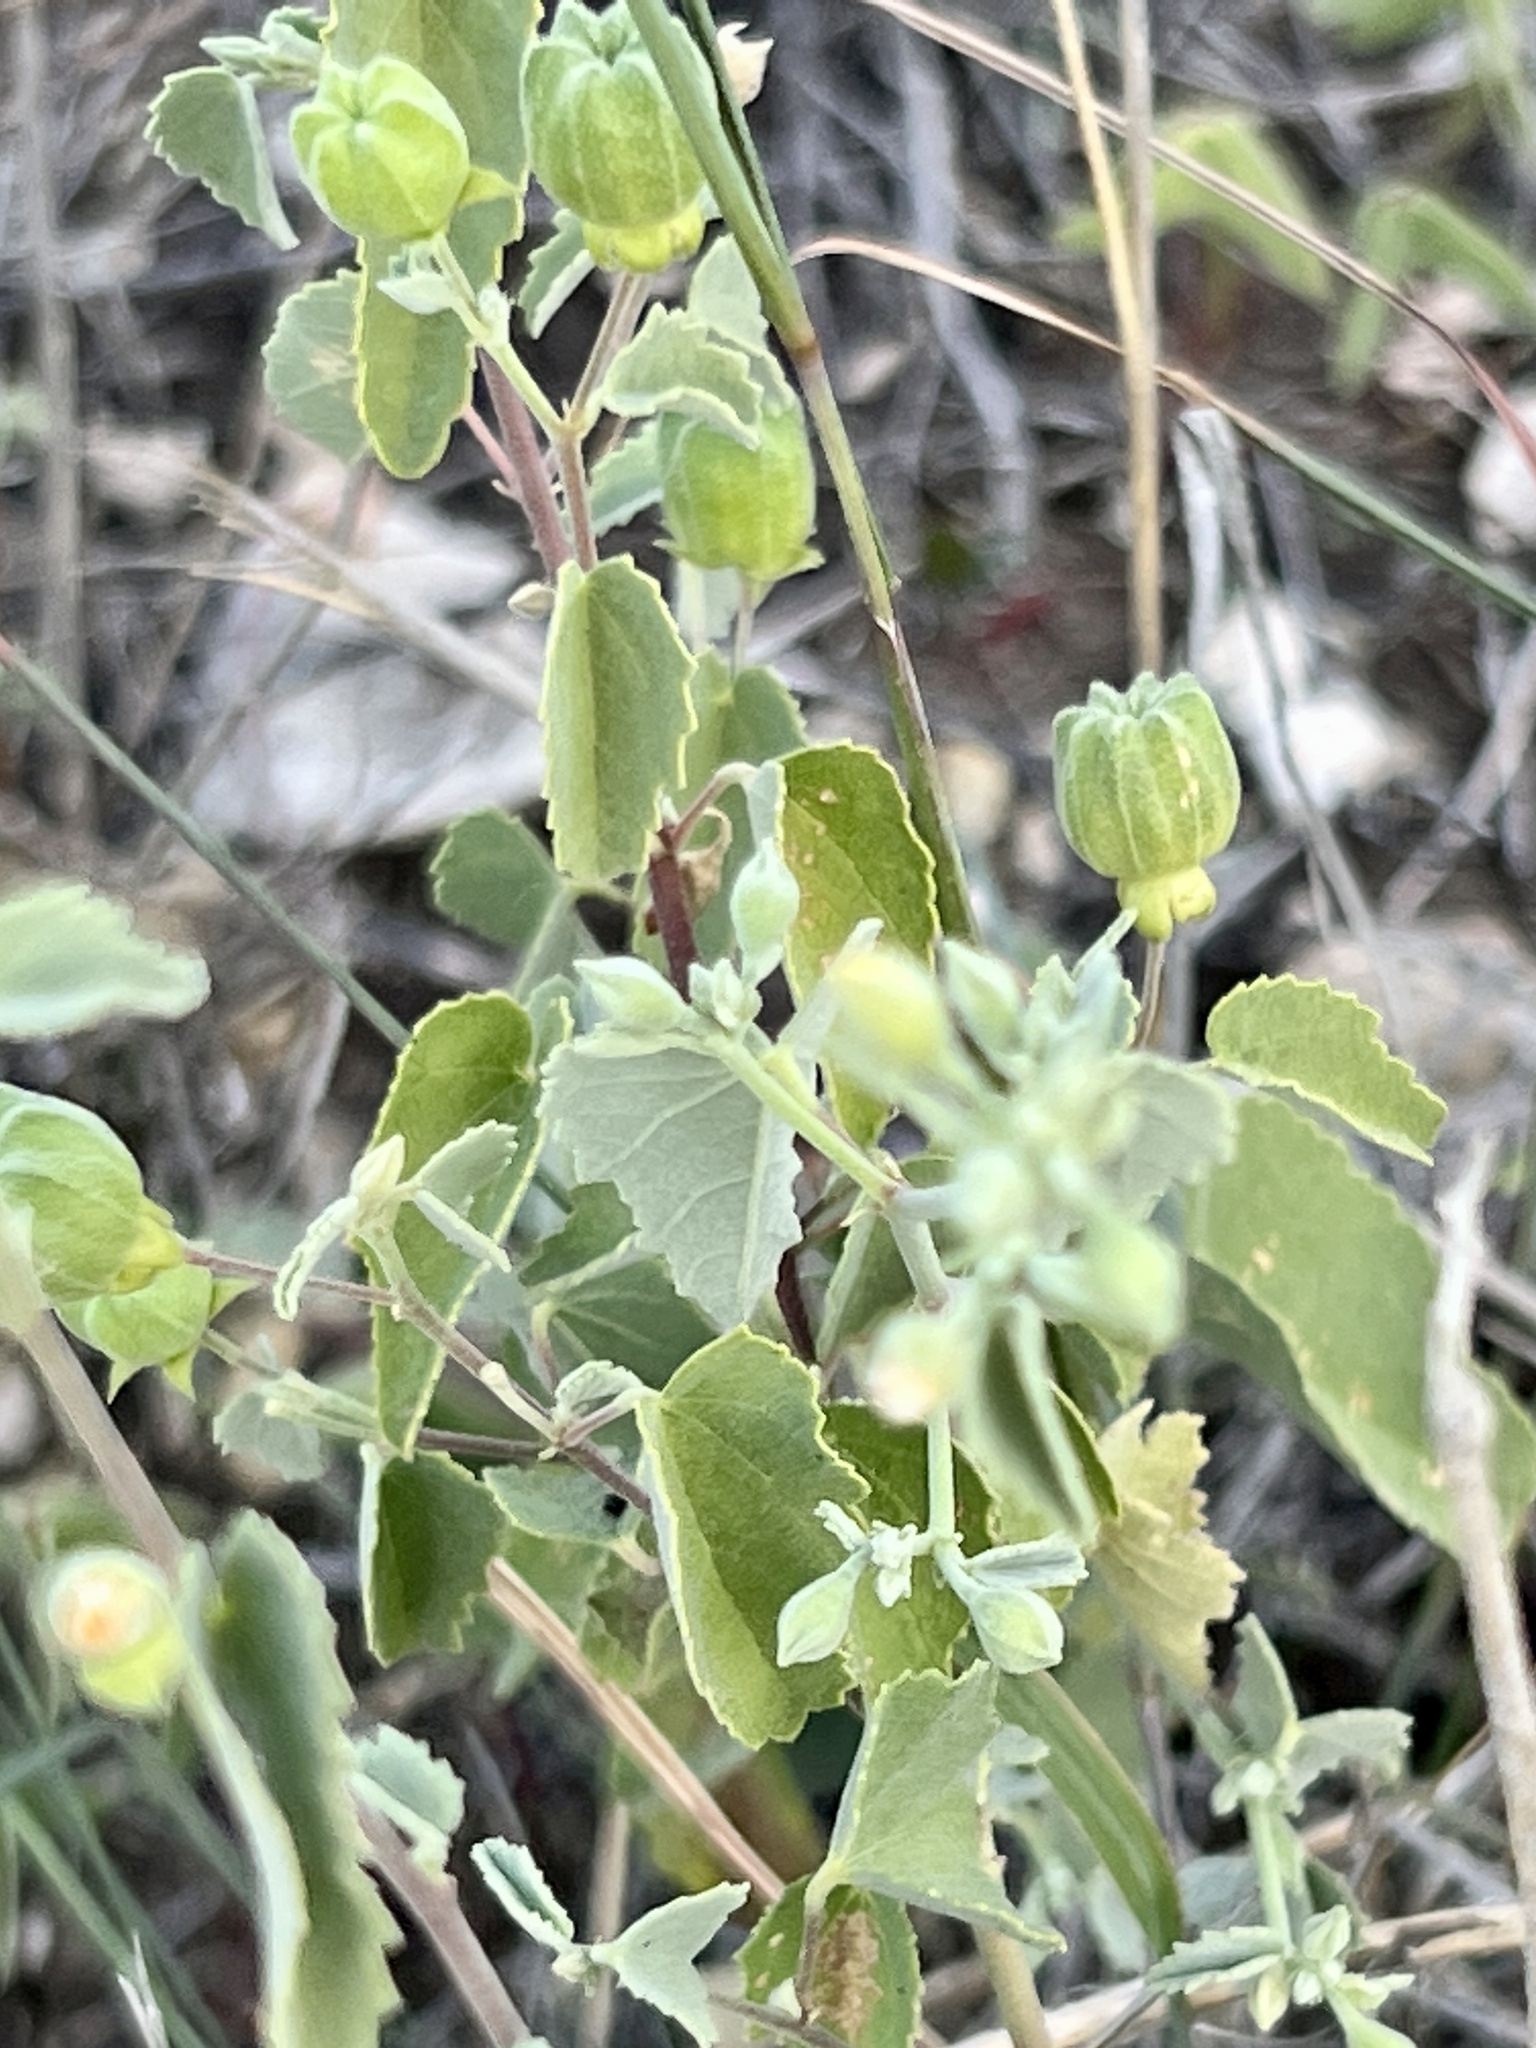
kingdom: Plantae
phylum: Tracheophyta
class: Magnoliopsida
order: Malvales
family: Malvaceae
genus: Abutilon
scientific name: Abutilon fruticosum
